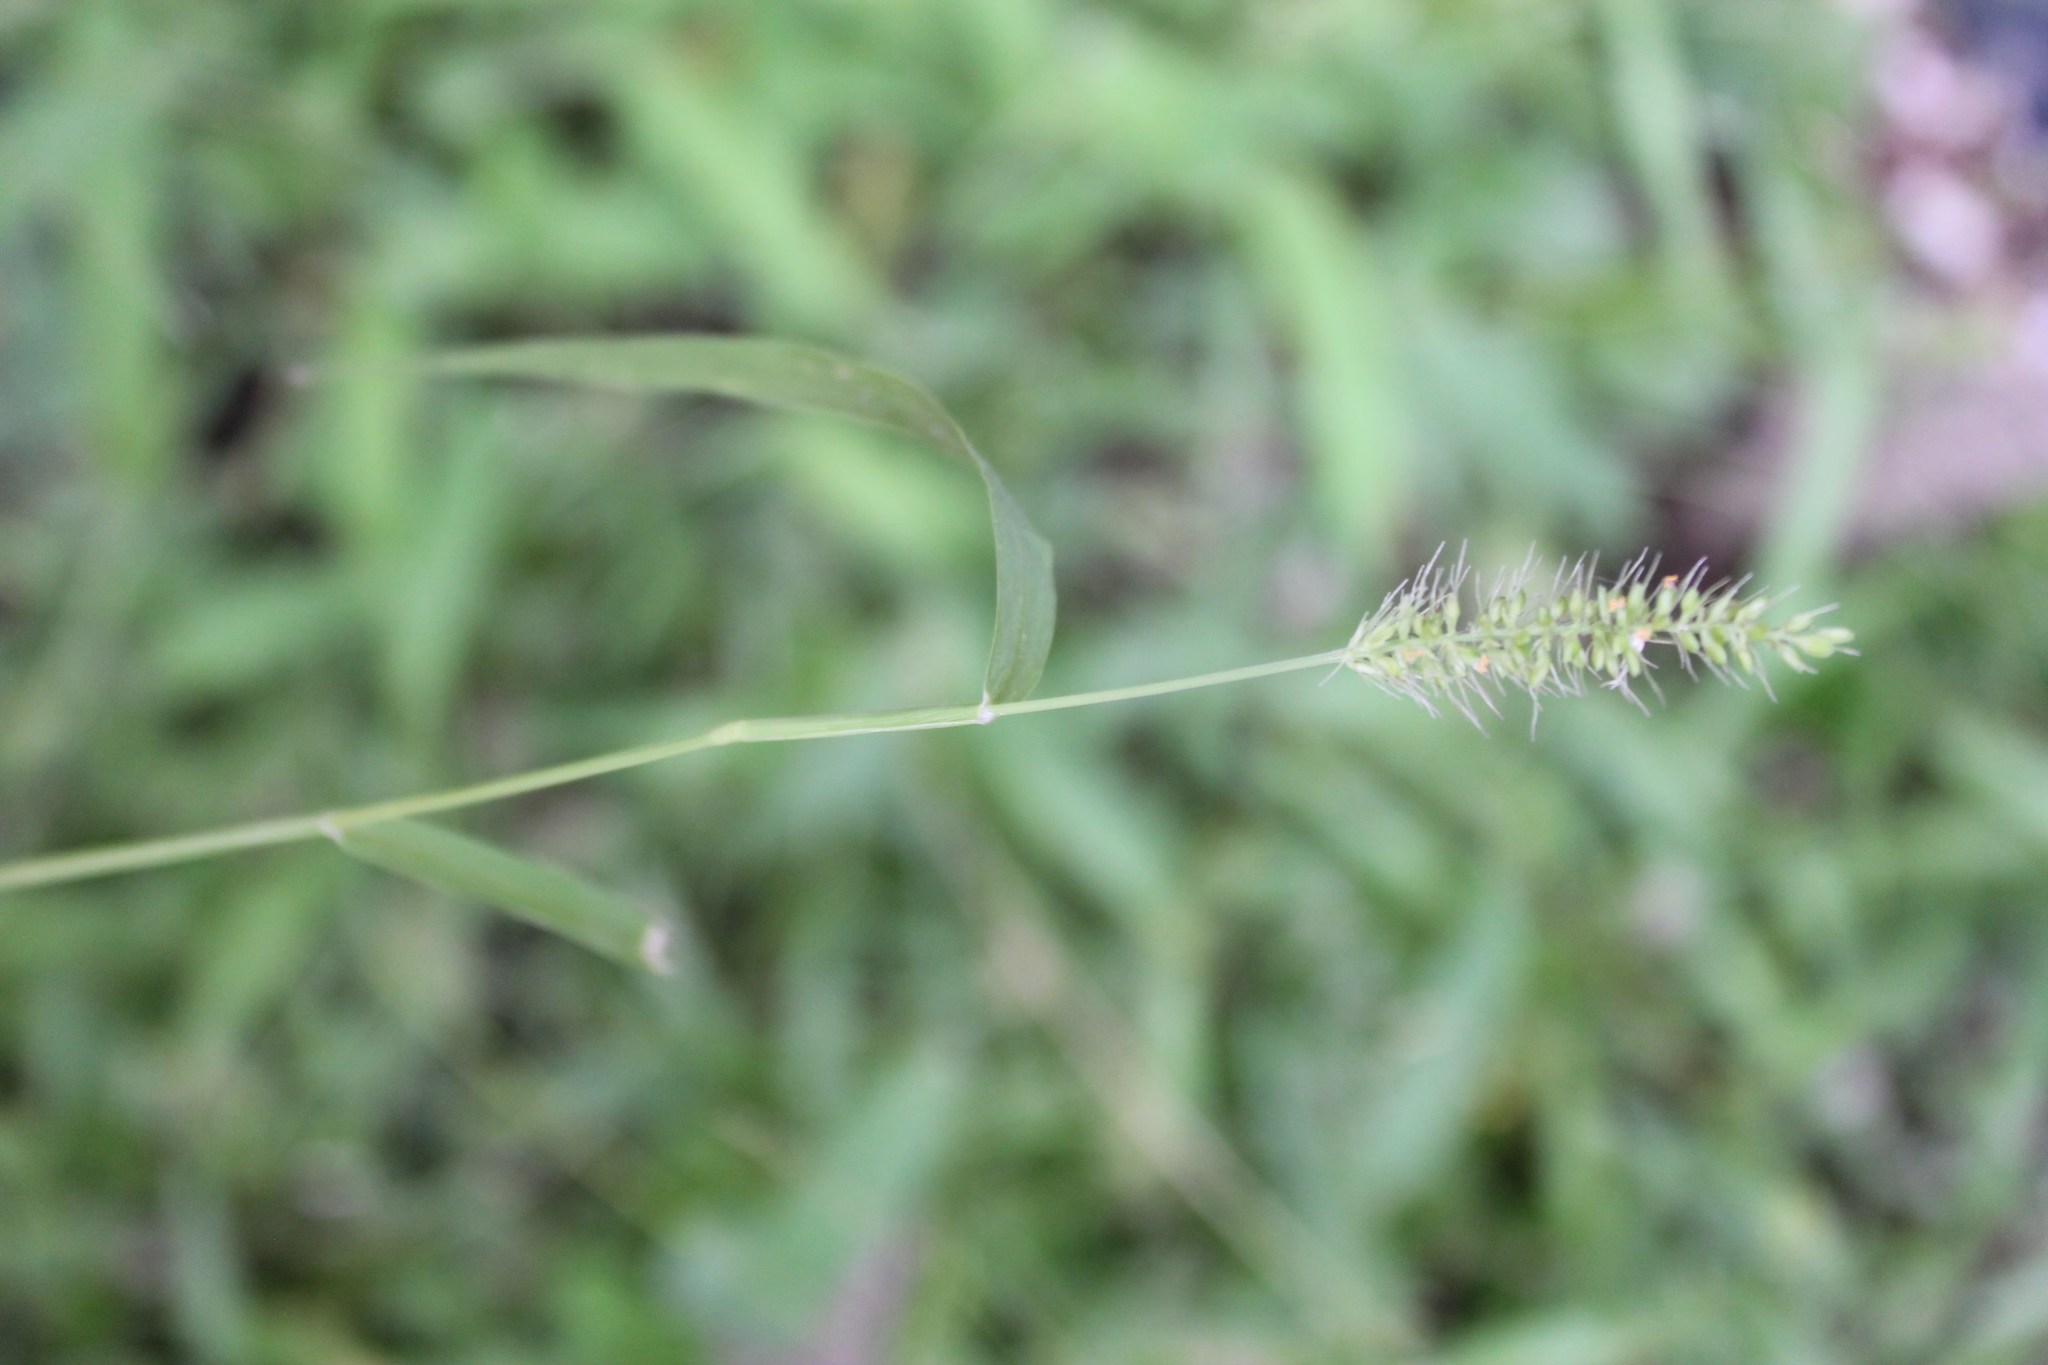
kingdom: Plantae
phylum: Tracheophyta
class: Liliopsida
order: Poales
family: Poaceae
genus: Setaria
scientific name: Setaria grisebachii
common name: Grisebach's bristle grass
